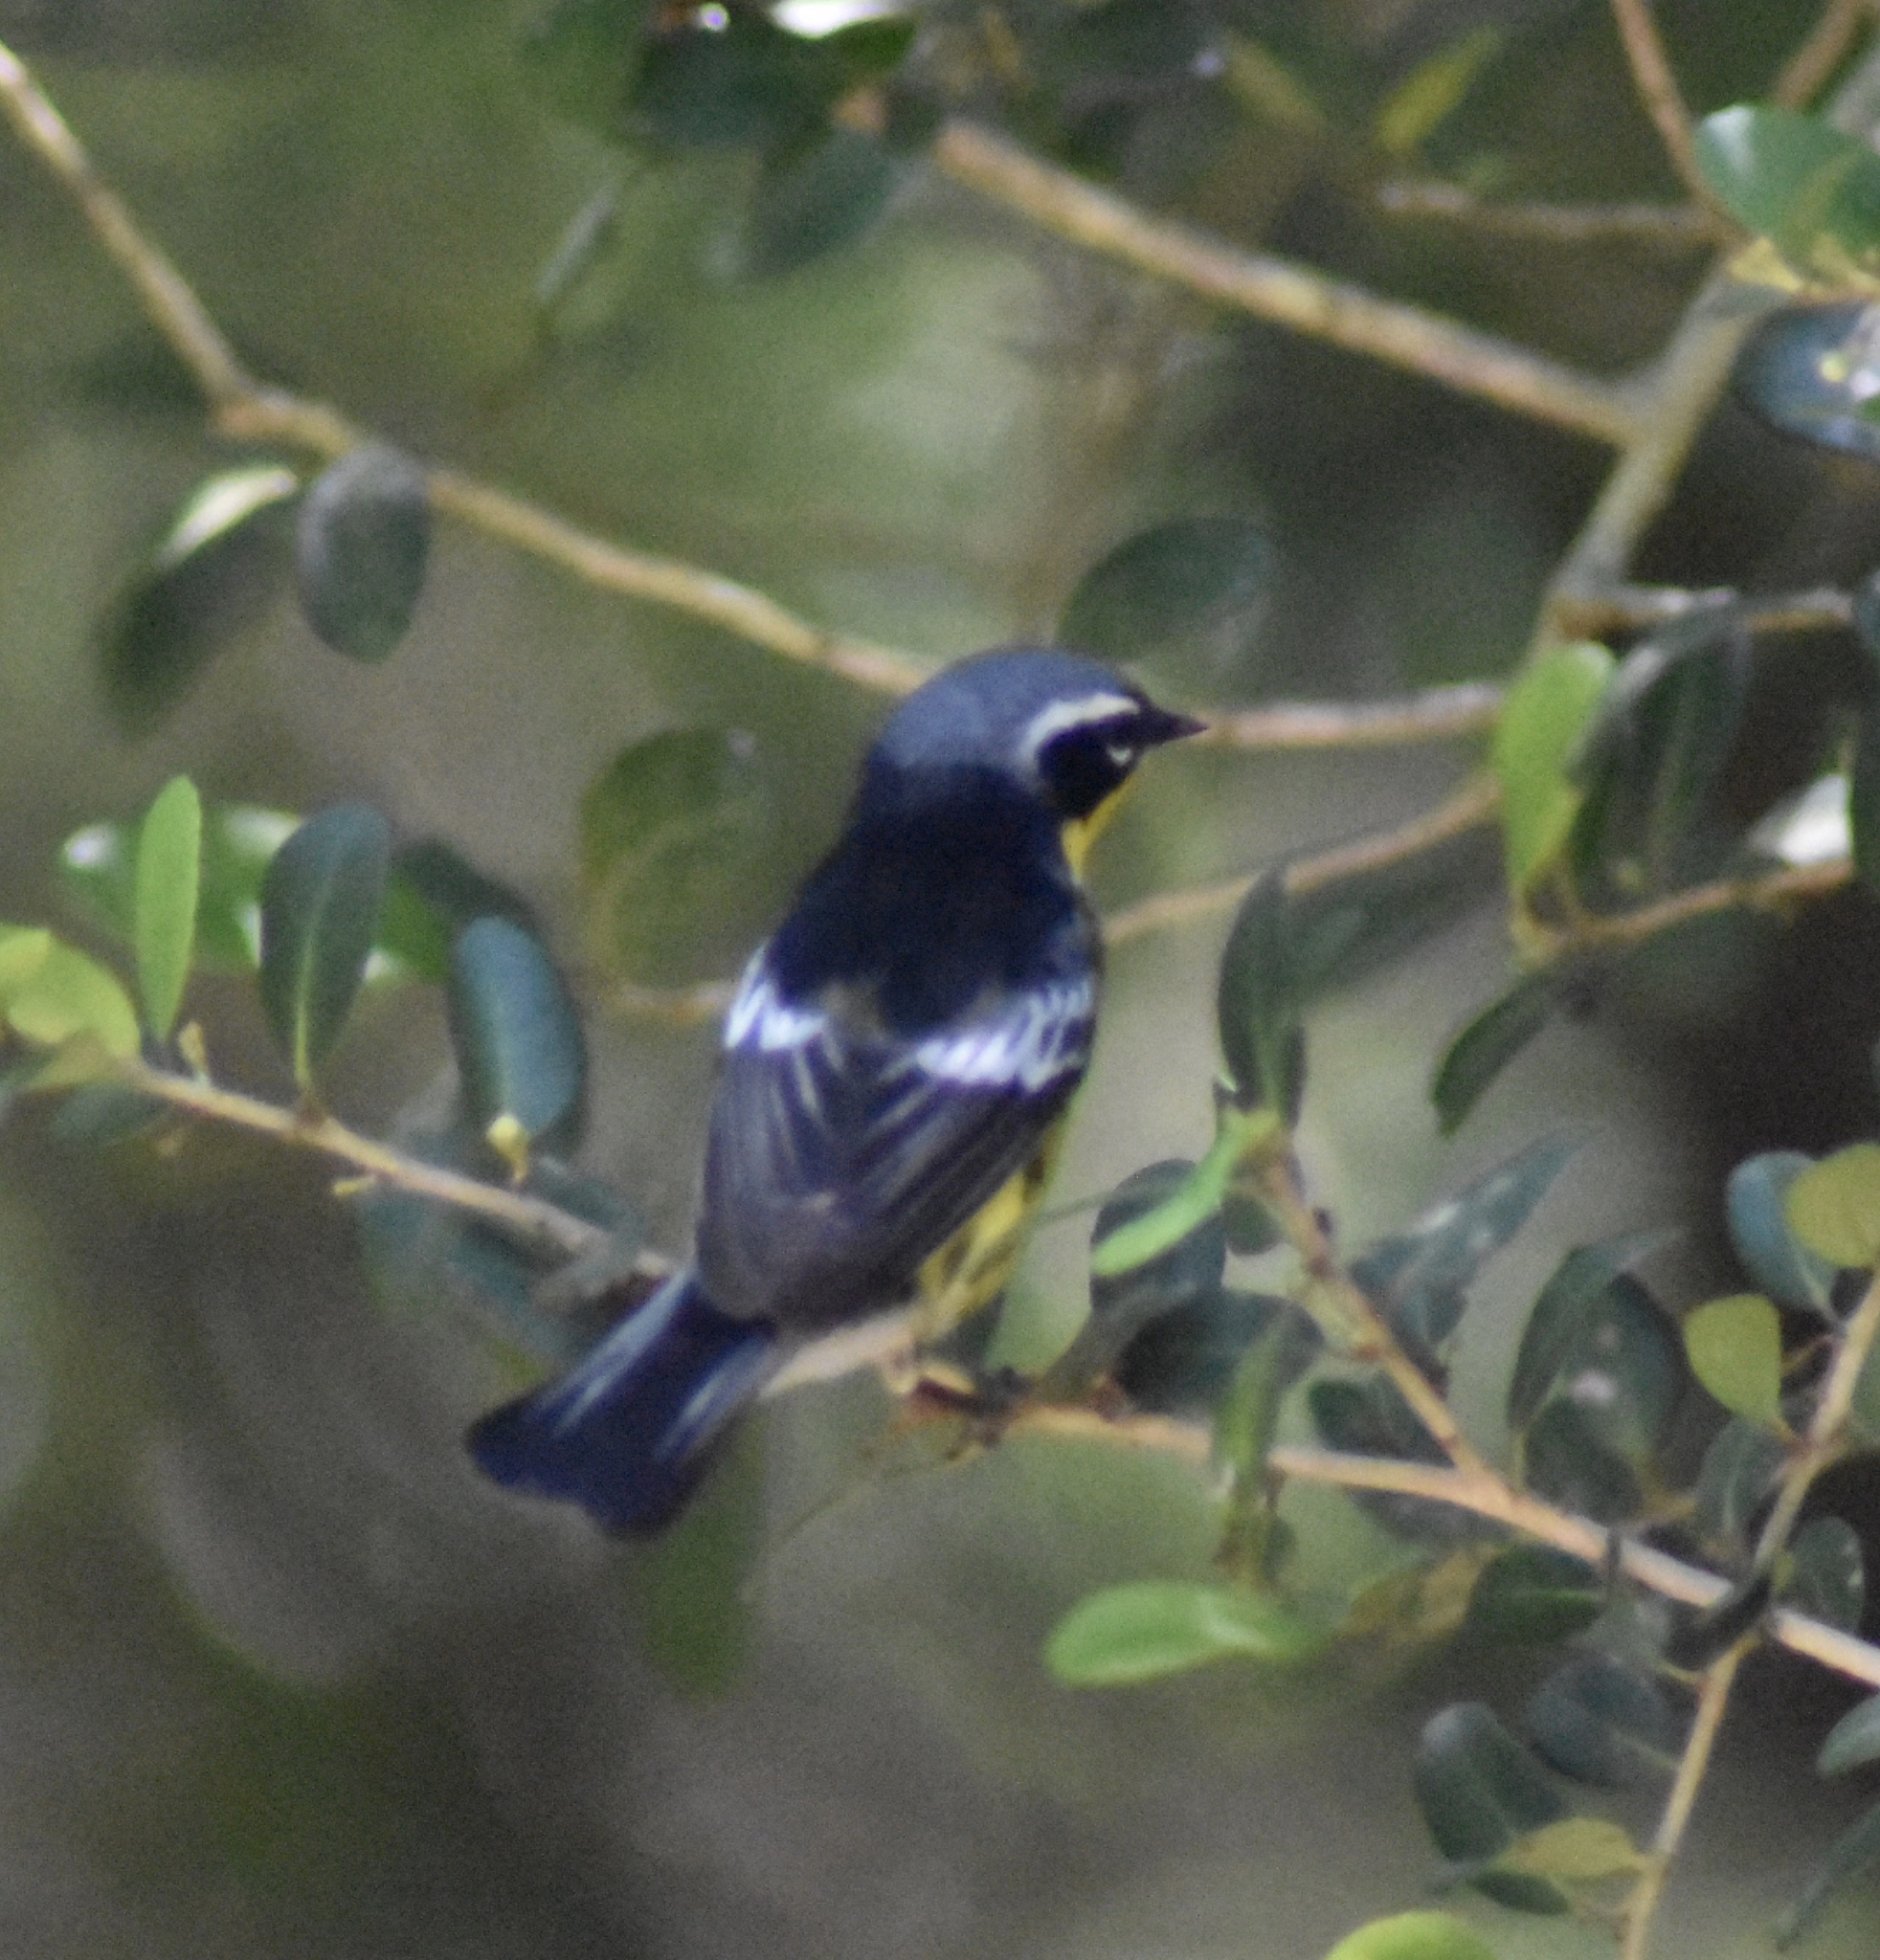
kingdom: Animalia
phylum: Chordata
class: Aves
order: Passeriformes
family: Parulidae
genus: Setophaga
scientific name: Setophaga magnolia
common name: Magnolia warbler
